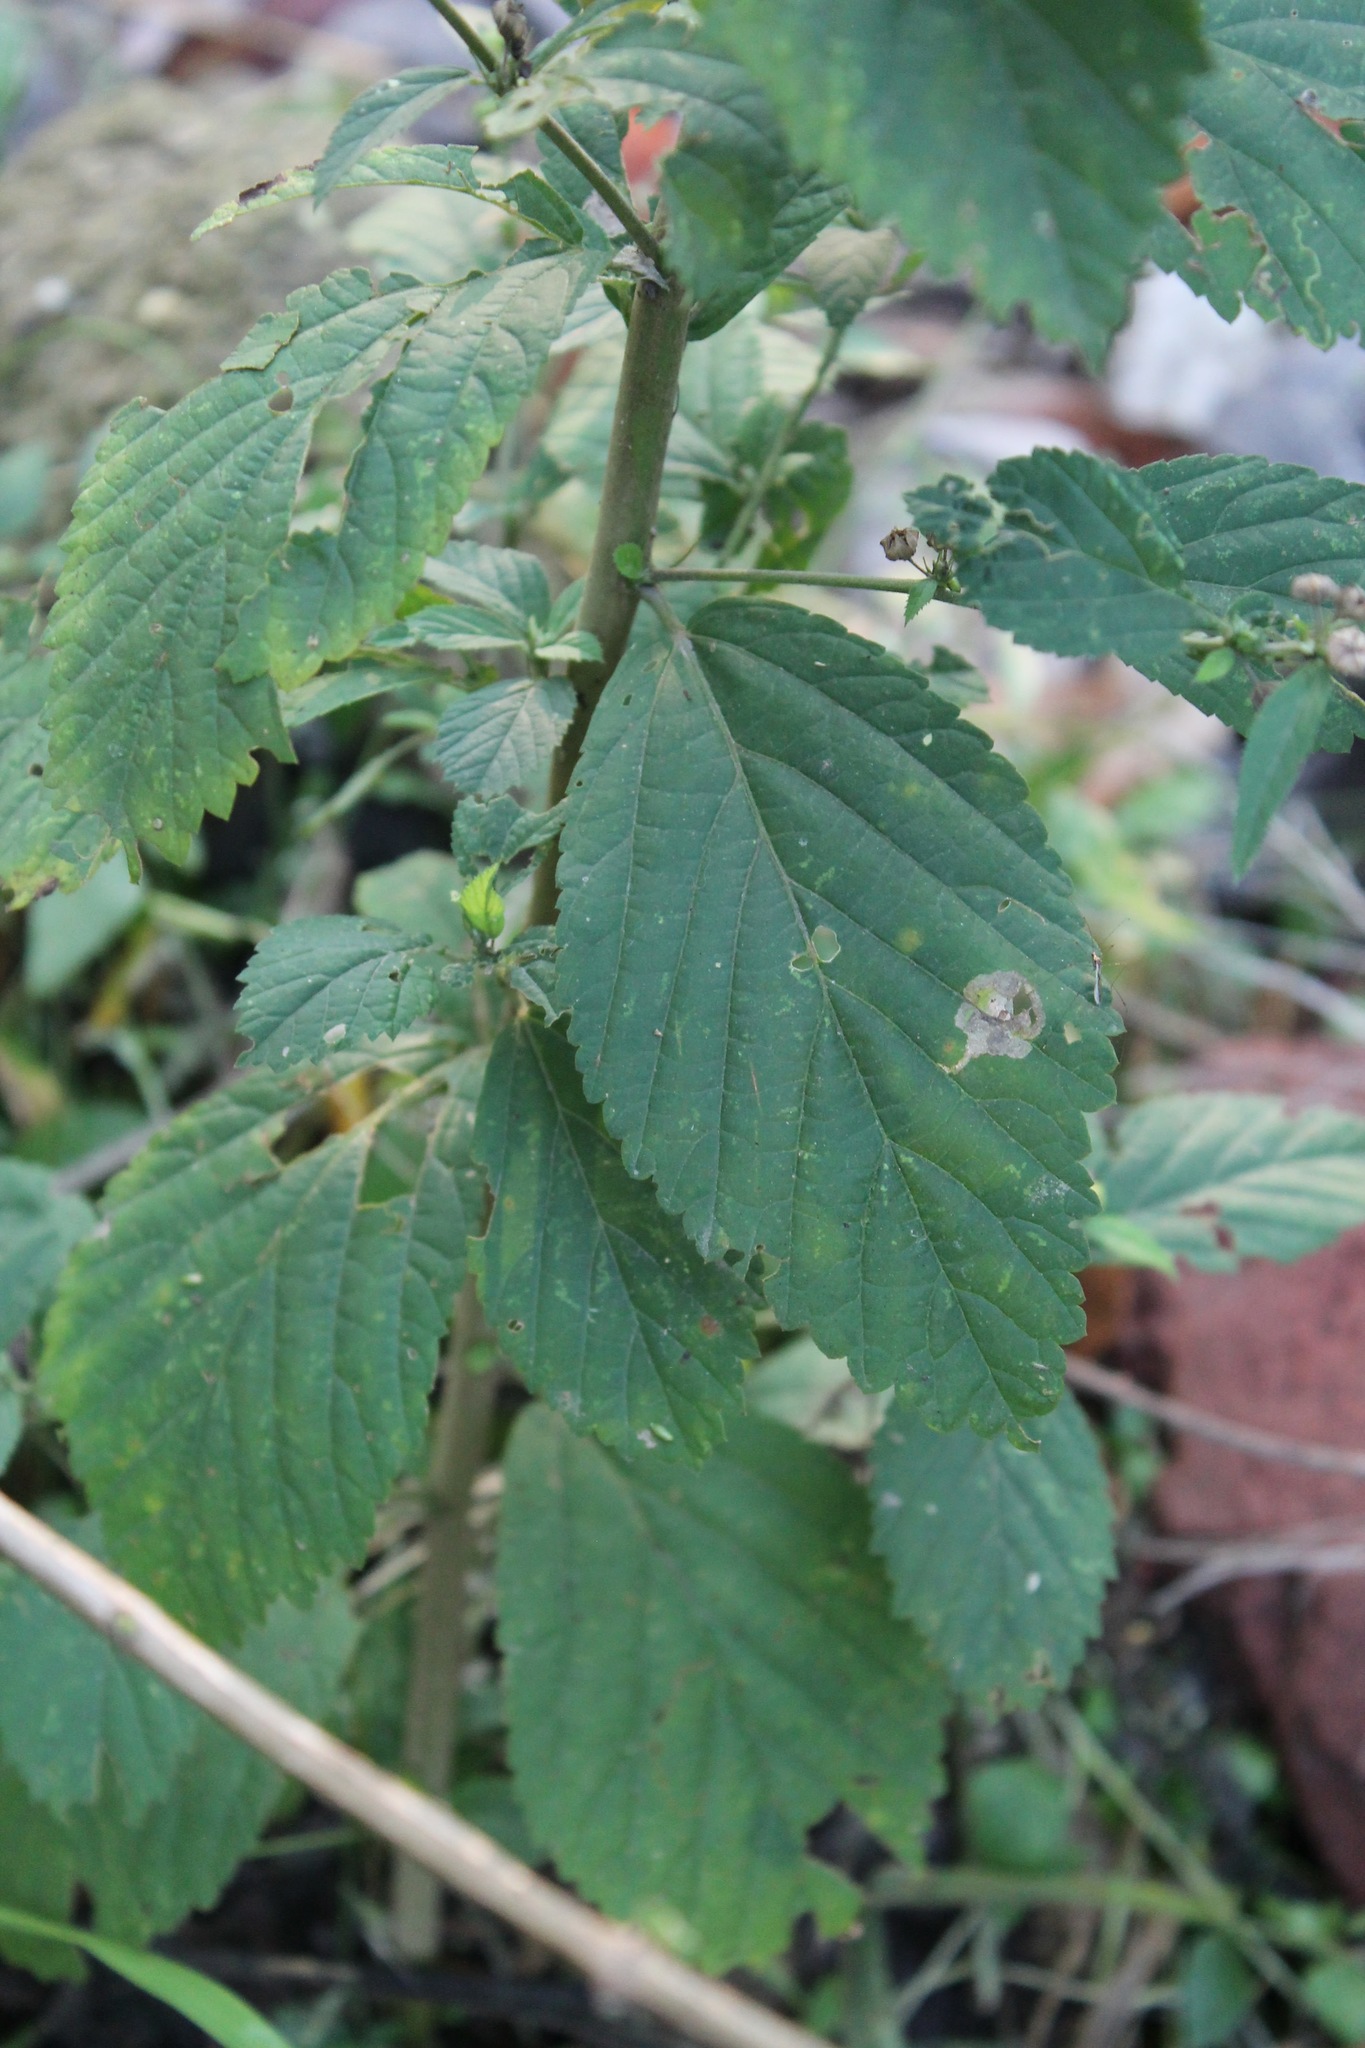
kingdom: Plantae
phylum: Tracheophyta
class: Magnoliopsida
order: Malvales
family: Malvaceae
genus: Sida
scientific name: Sida rhombifolia
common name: Queensland-hemp
